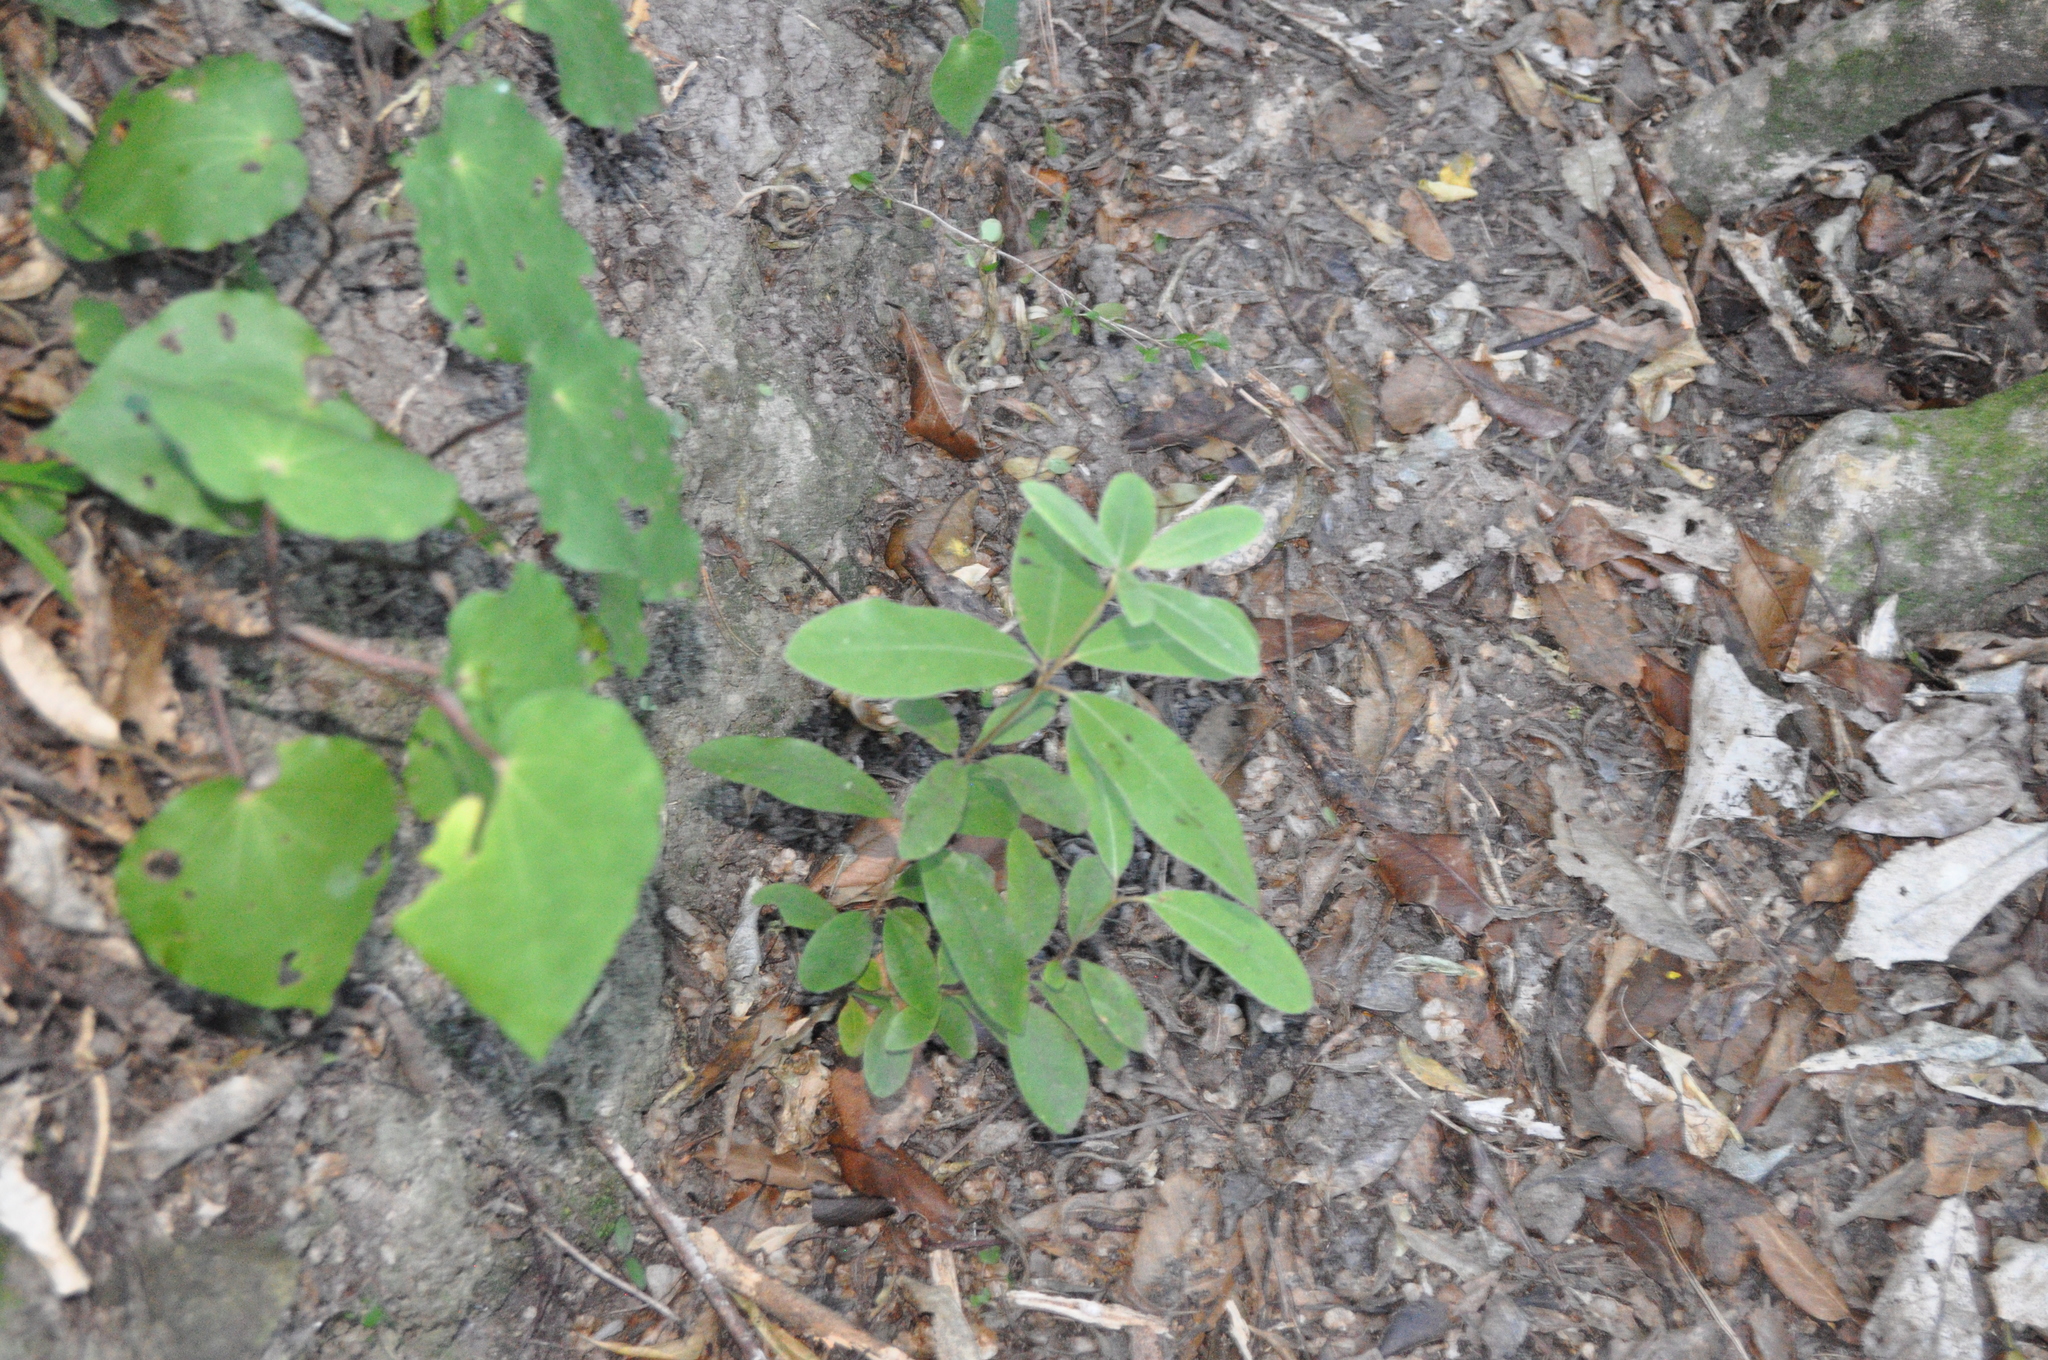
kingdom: Plantae
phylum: Tracheophyta
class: Magnoliopsida
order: Apiales
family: Pittosporaceae
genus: Pittosporum
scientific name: Pittosporum ralphii
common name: Ralph's desertwillow
